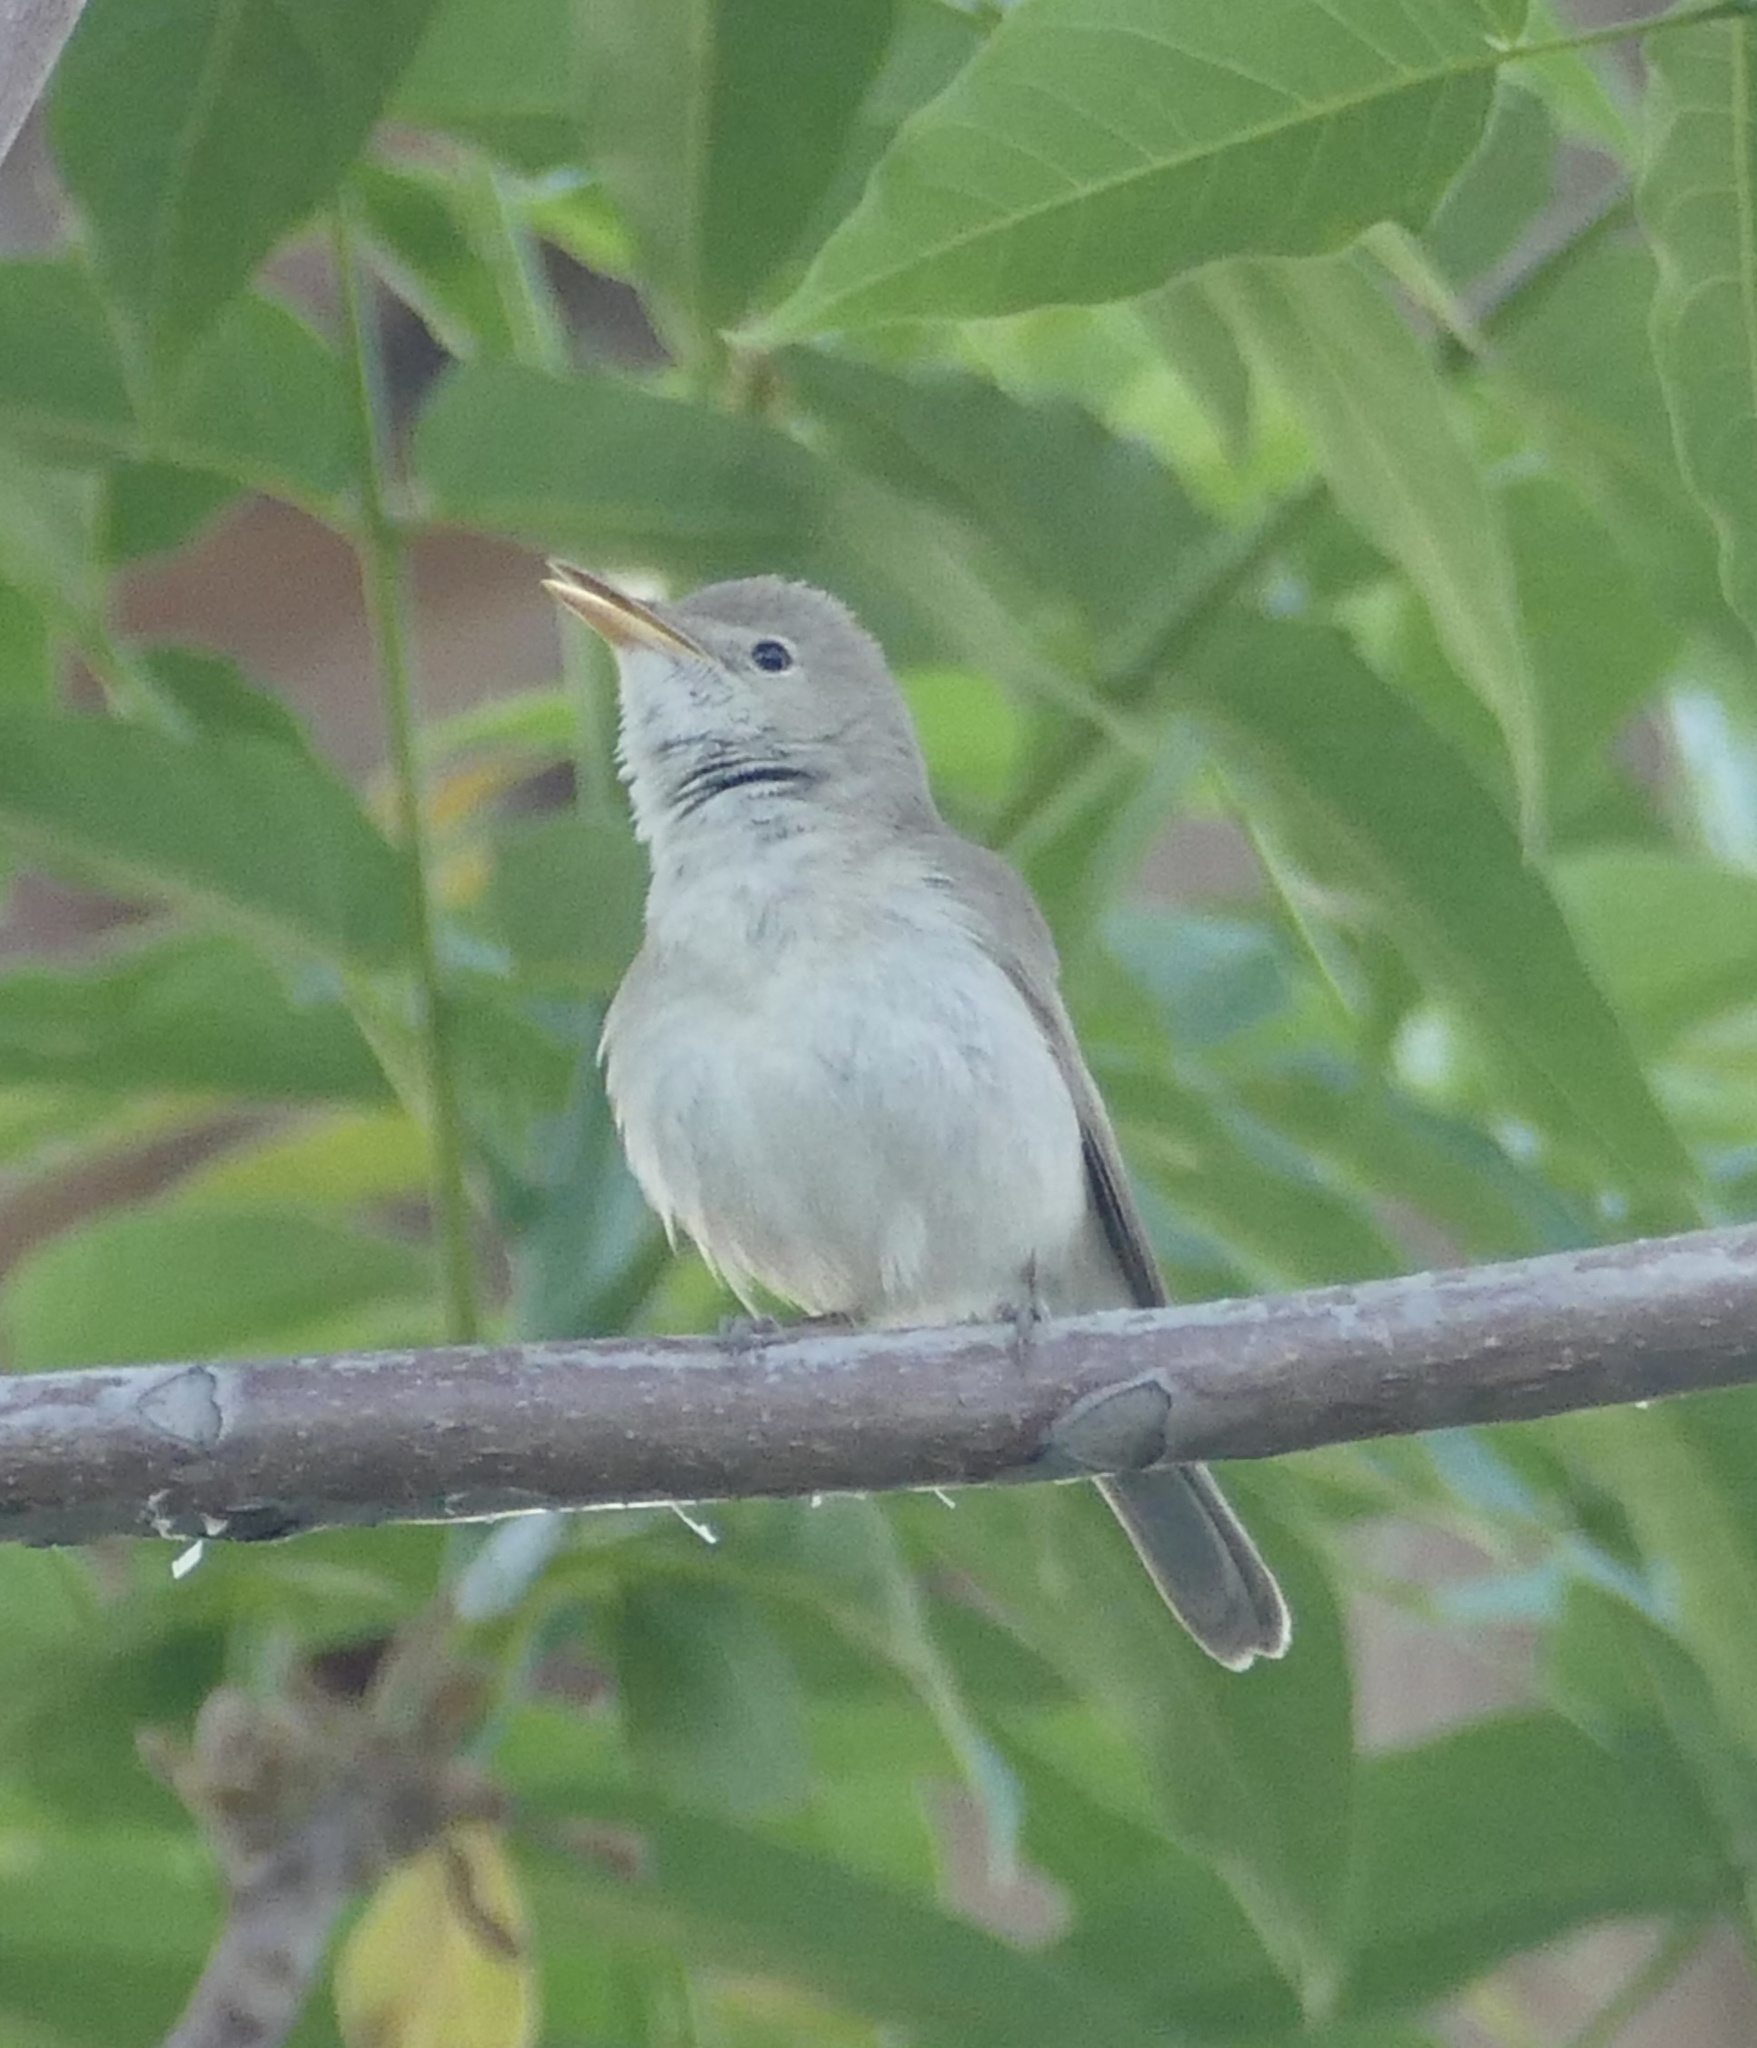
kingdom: Animalia
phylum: Chordata
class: Aves
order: Passeriformes
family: Acrocephalidae
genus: Iduna
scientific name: Iduna opaca
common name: Western olivaceous warbler
